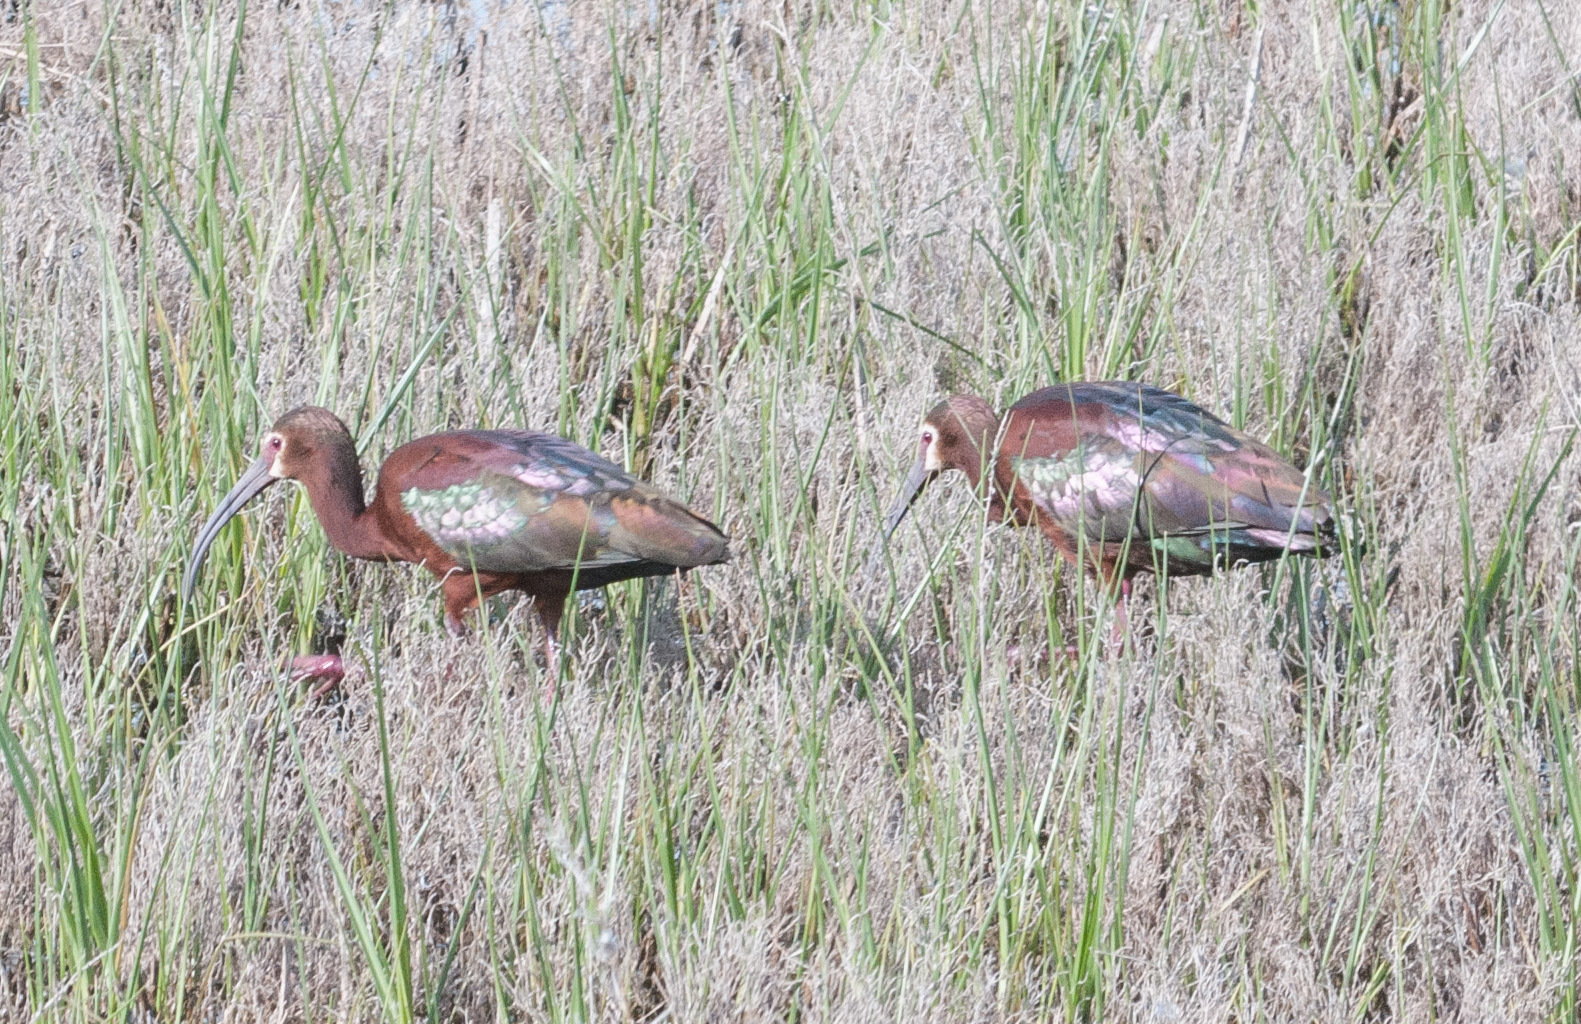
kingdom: Animalia
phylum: Chordata
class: Aves
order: Pelecaniformes
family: Threskiornithidae
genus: Plegadis
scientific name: Plegadis chihi
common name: White-faced ibis
